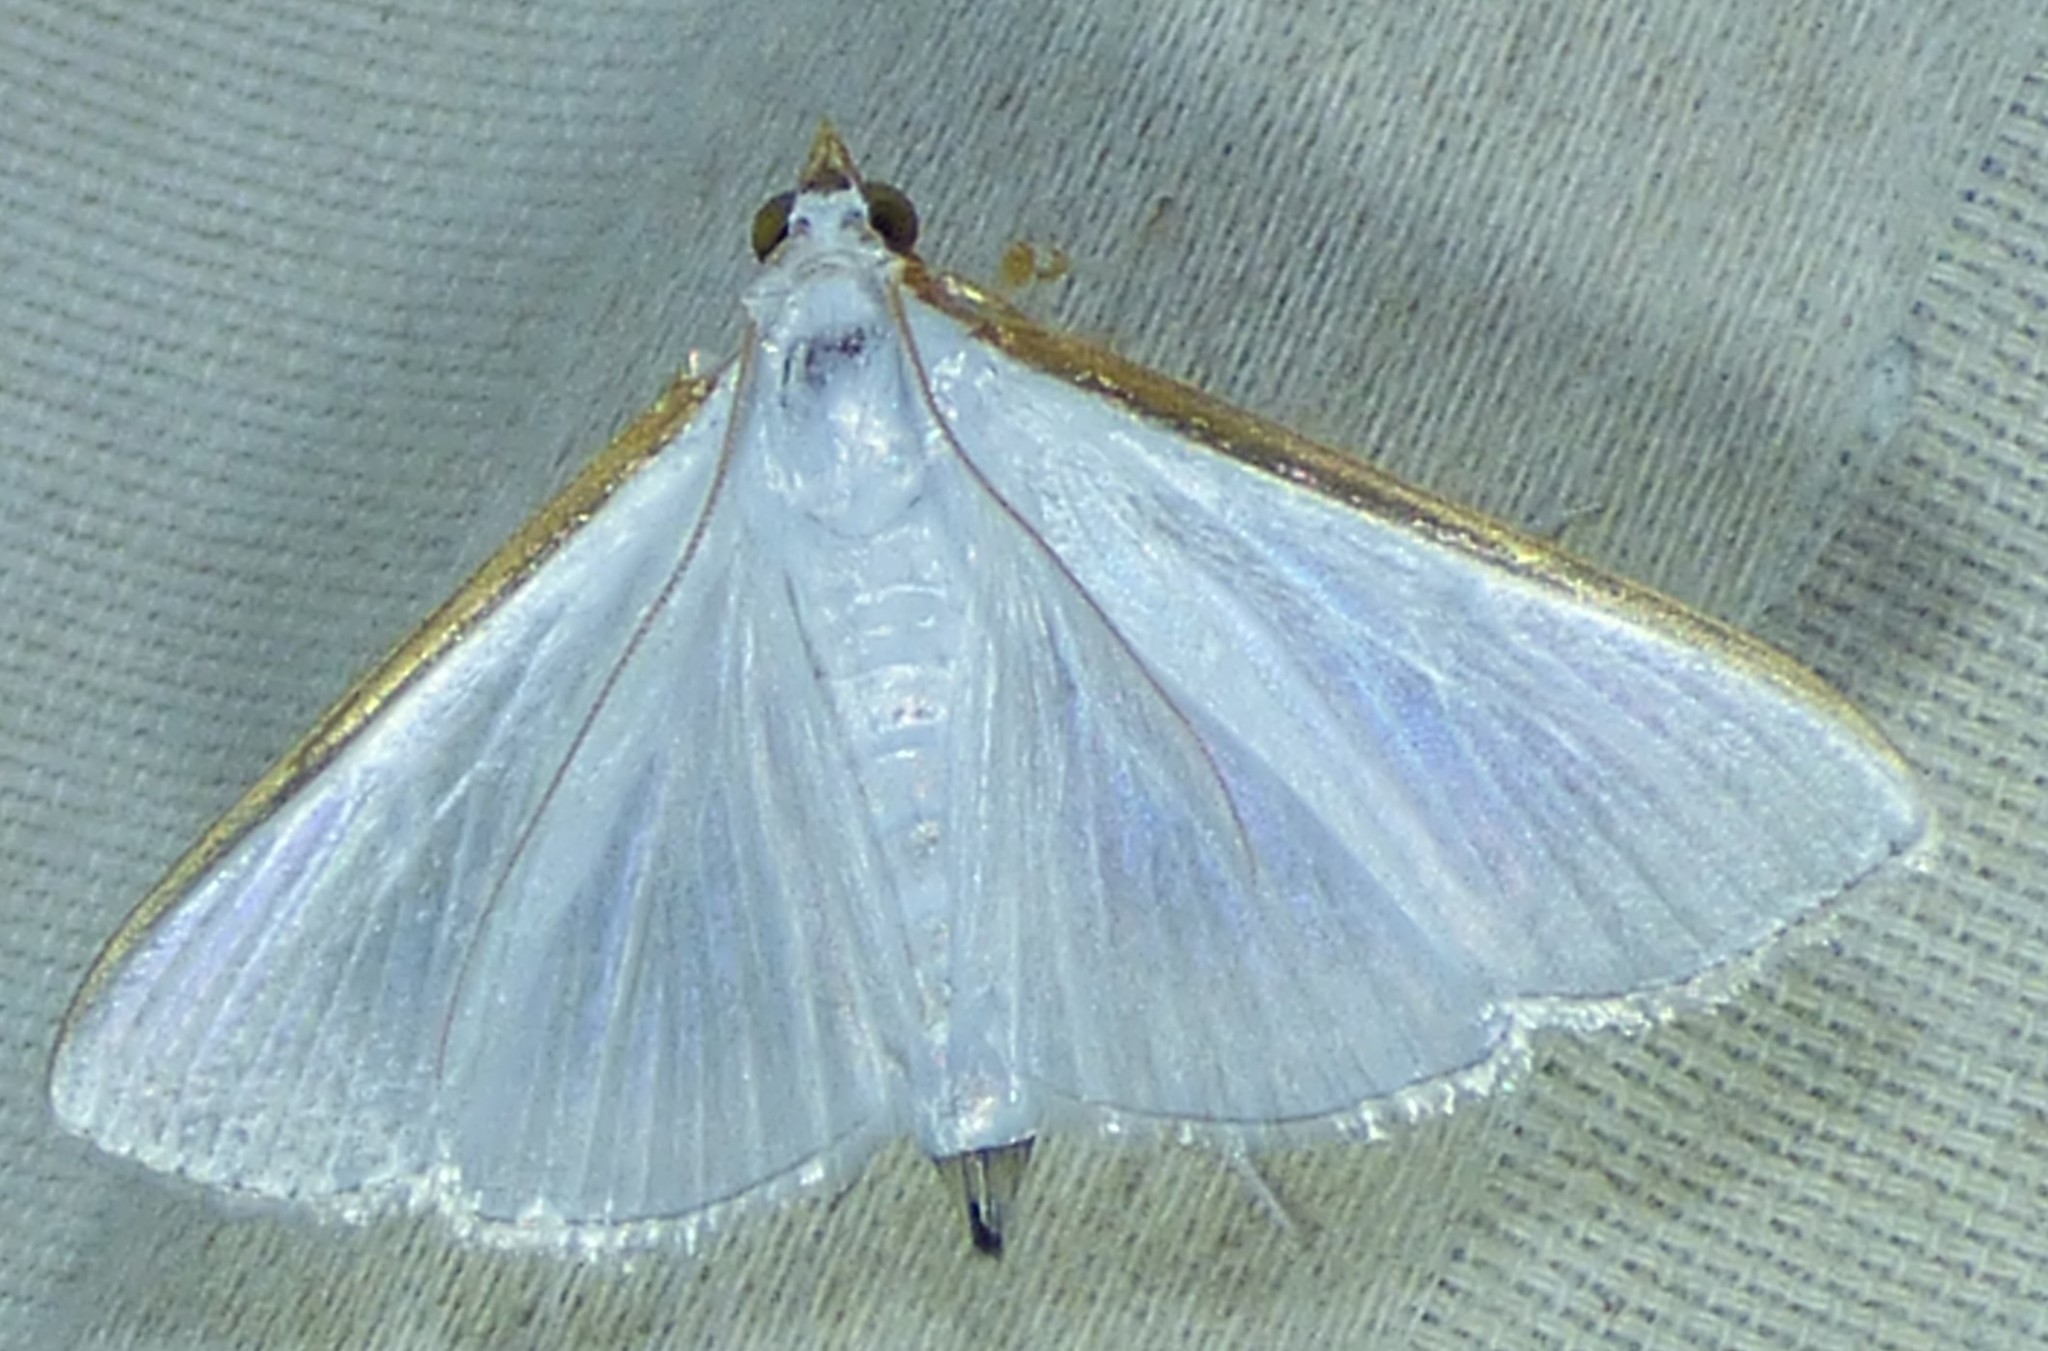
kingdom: Animalia
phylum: Arthropoda
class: Insecta
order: Lepidoptera
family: Crambidae
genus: Diaphania
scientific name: Diaphania costata
